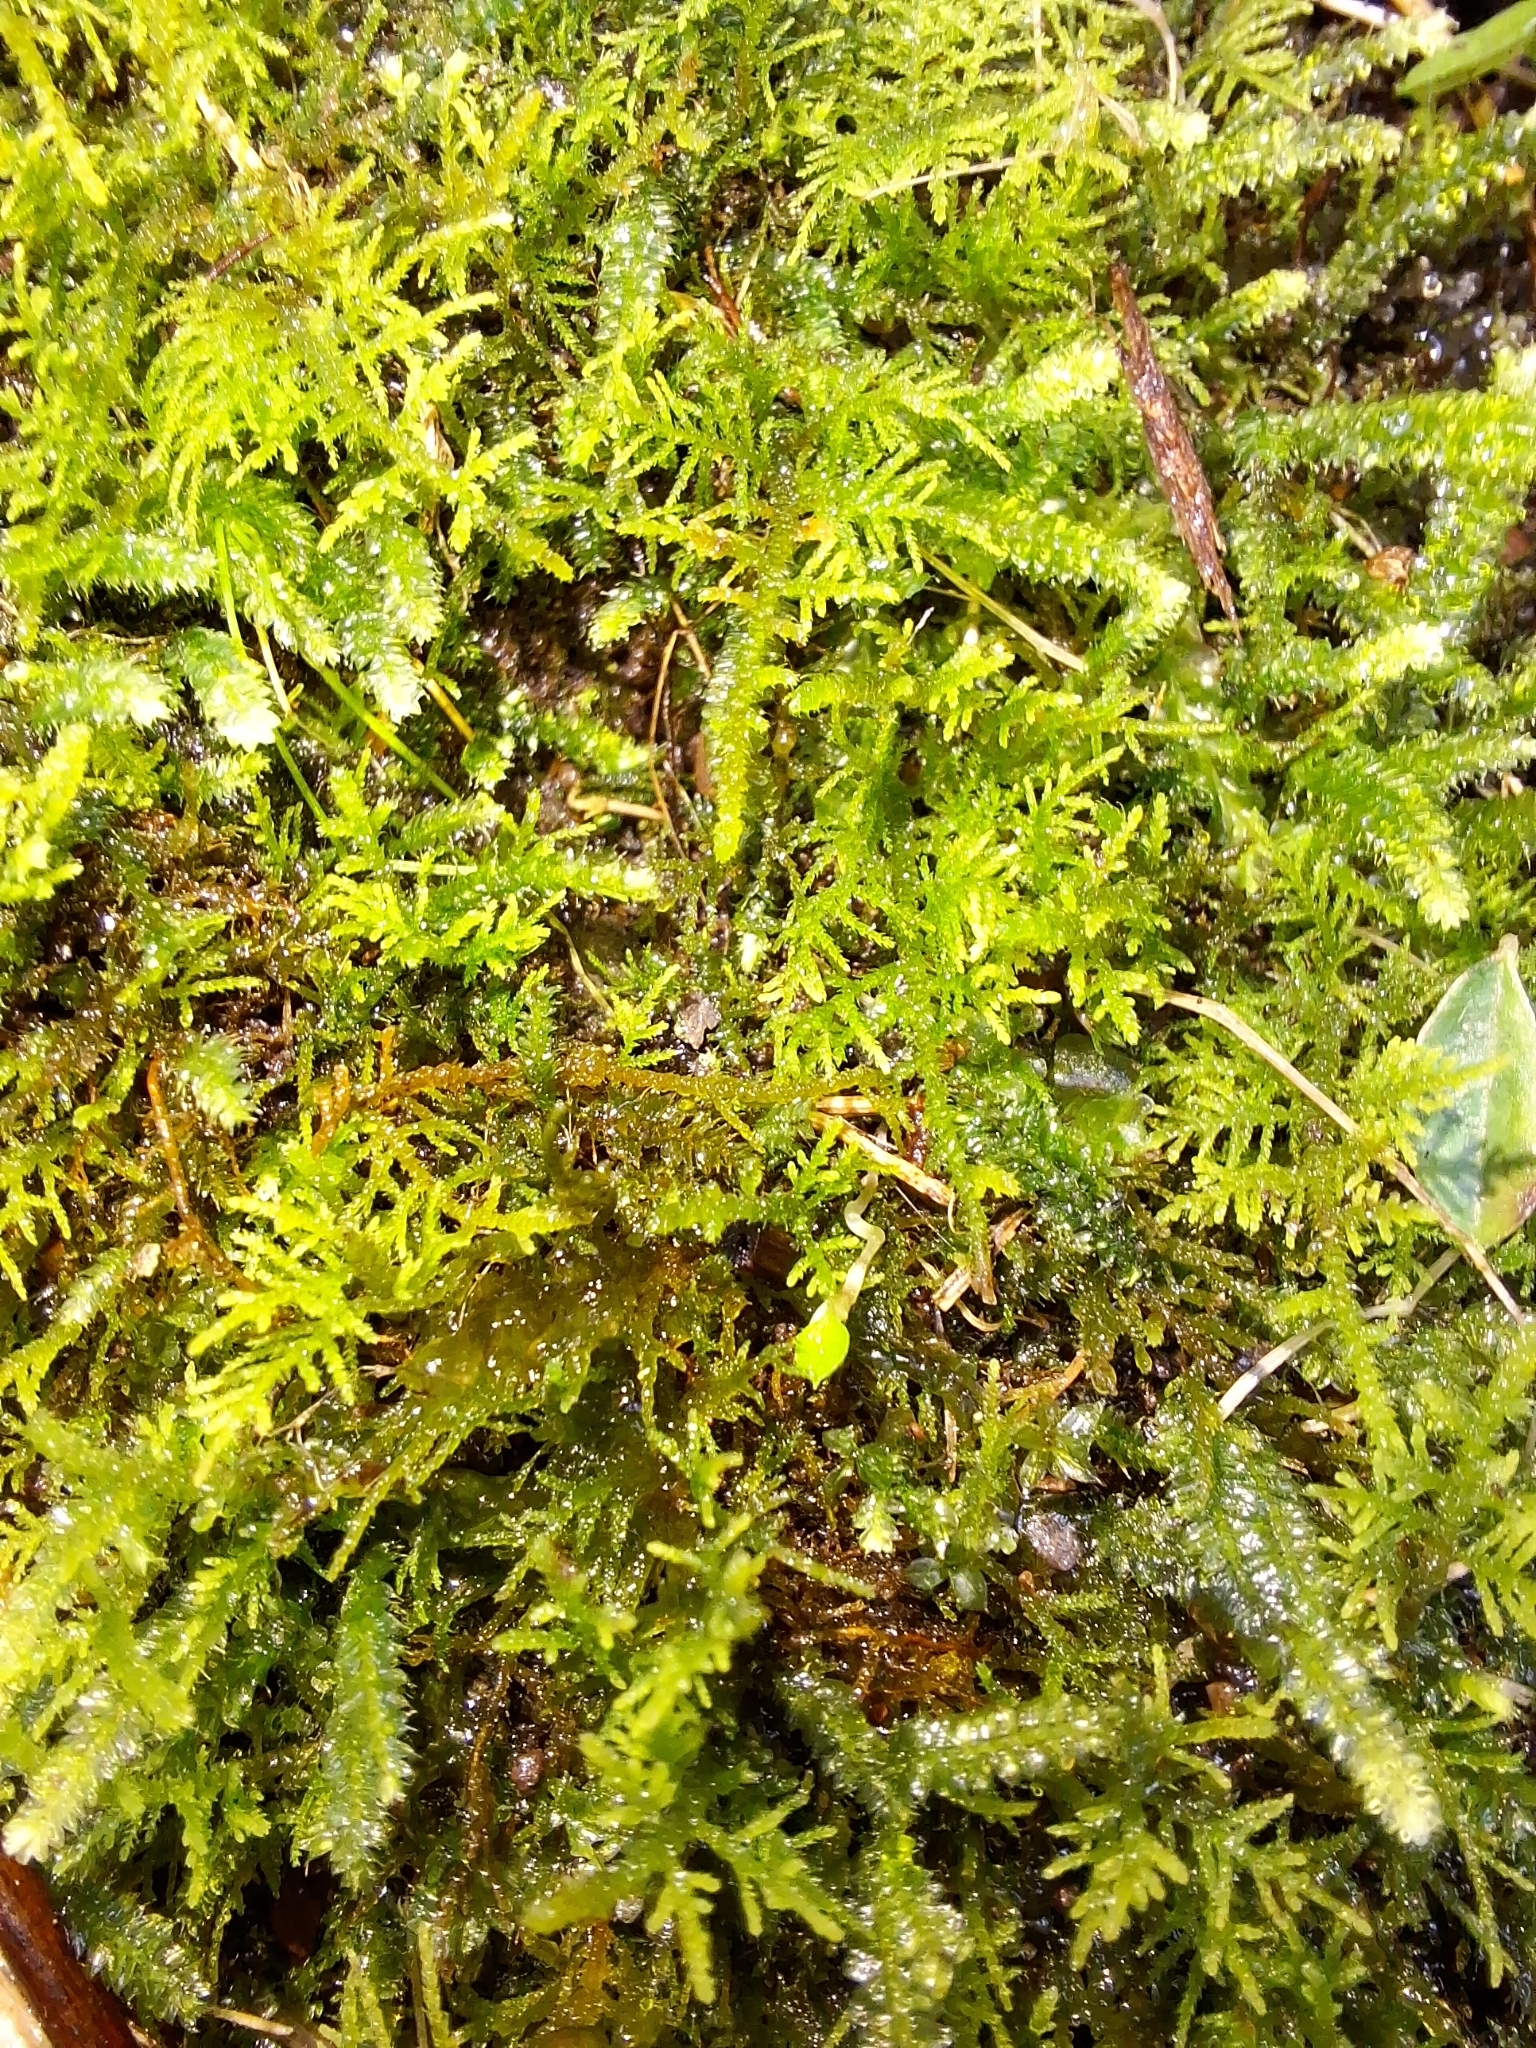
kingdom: Plantae
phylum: Bryophyta
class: Bryopsida
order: Hypnales
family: Thuidiaceae
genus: Thuidiopsis
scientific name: Thuidiopsis sparsa
